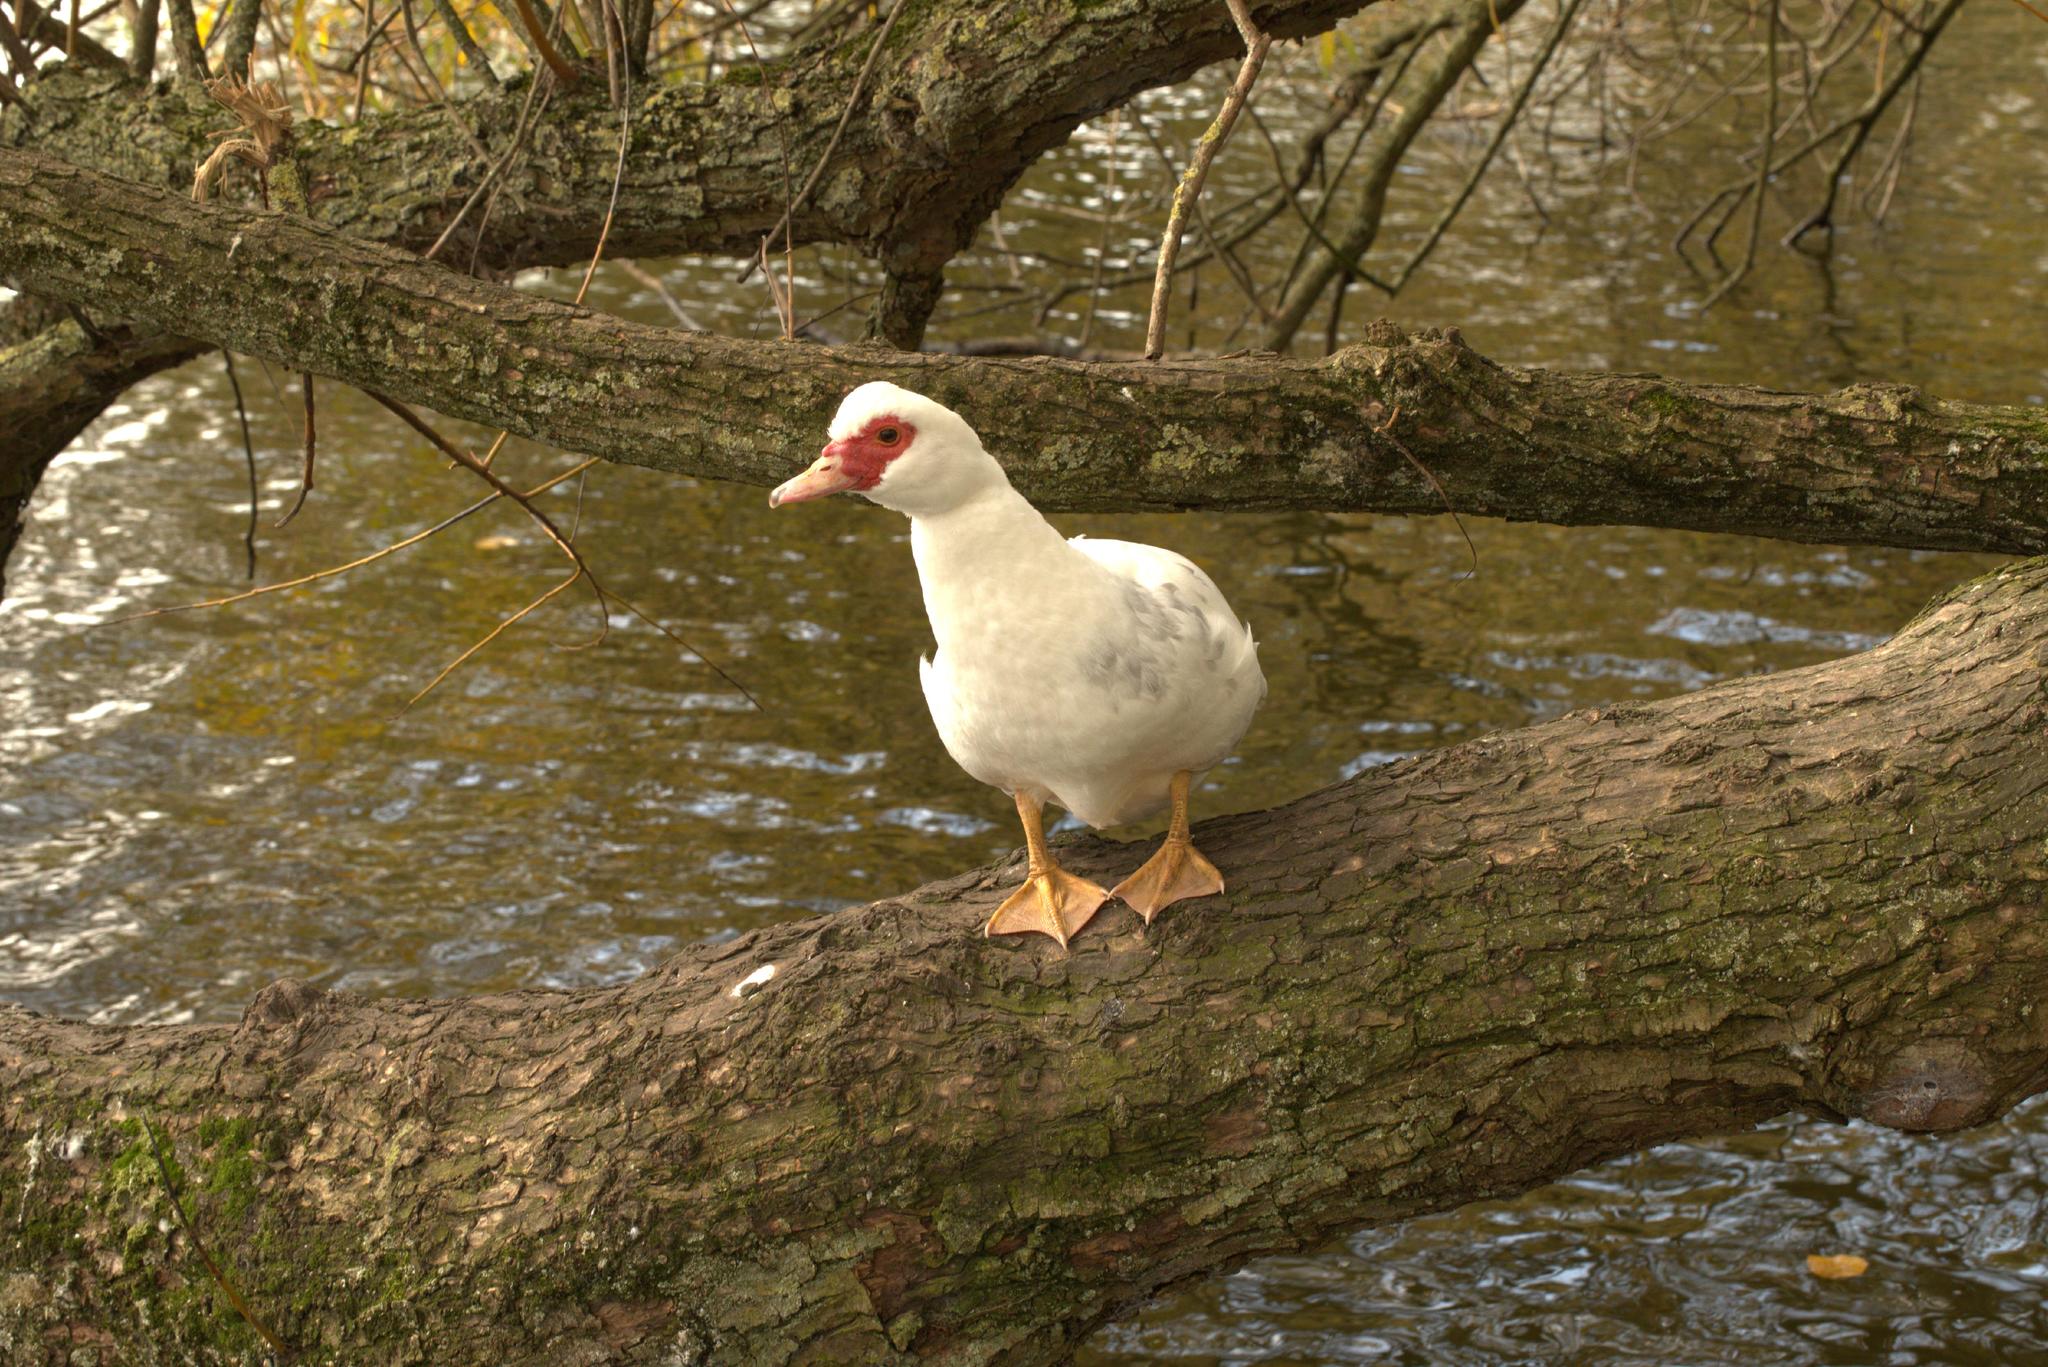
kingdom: Animalia
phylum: Chordata
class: Aves
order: Anseriformes
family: Anatidae
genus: Cairina
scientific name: Cairina moschata
